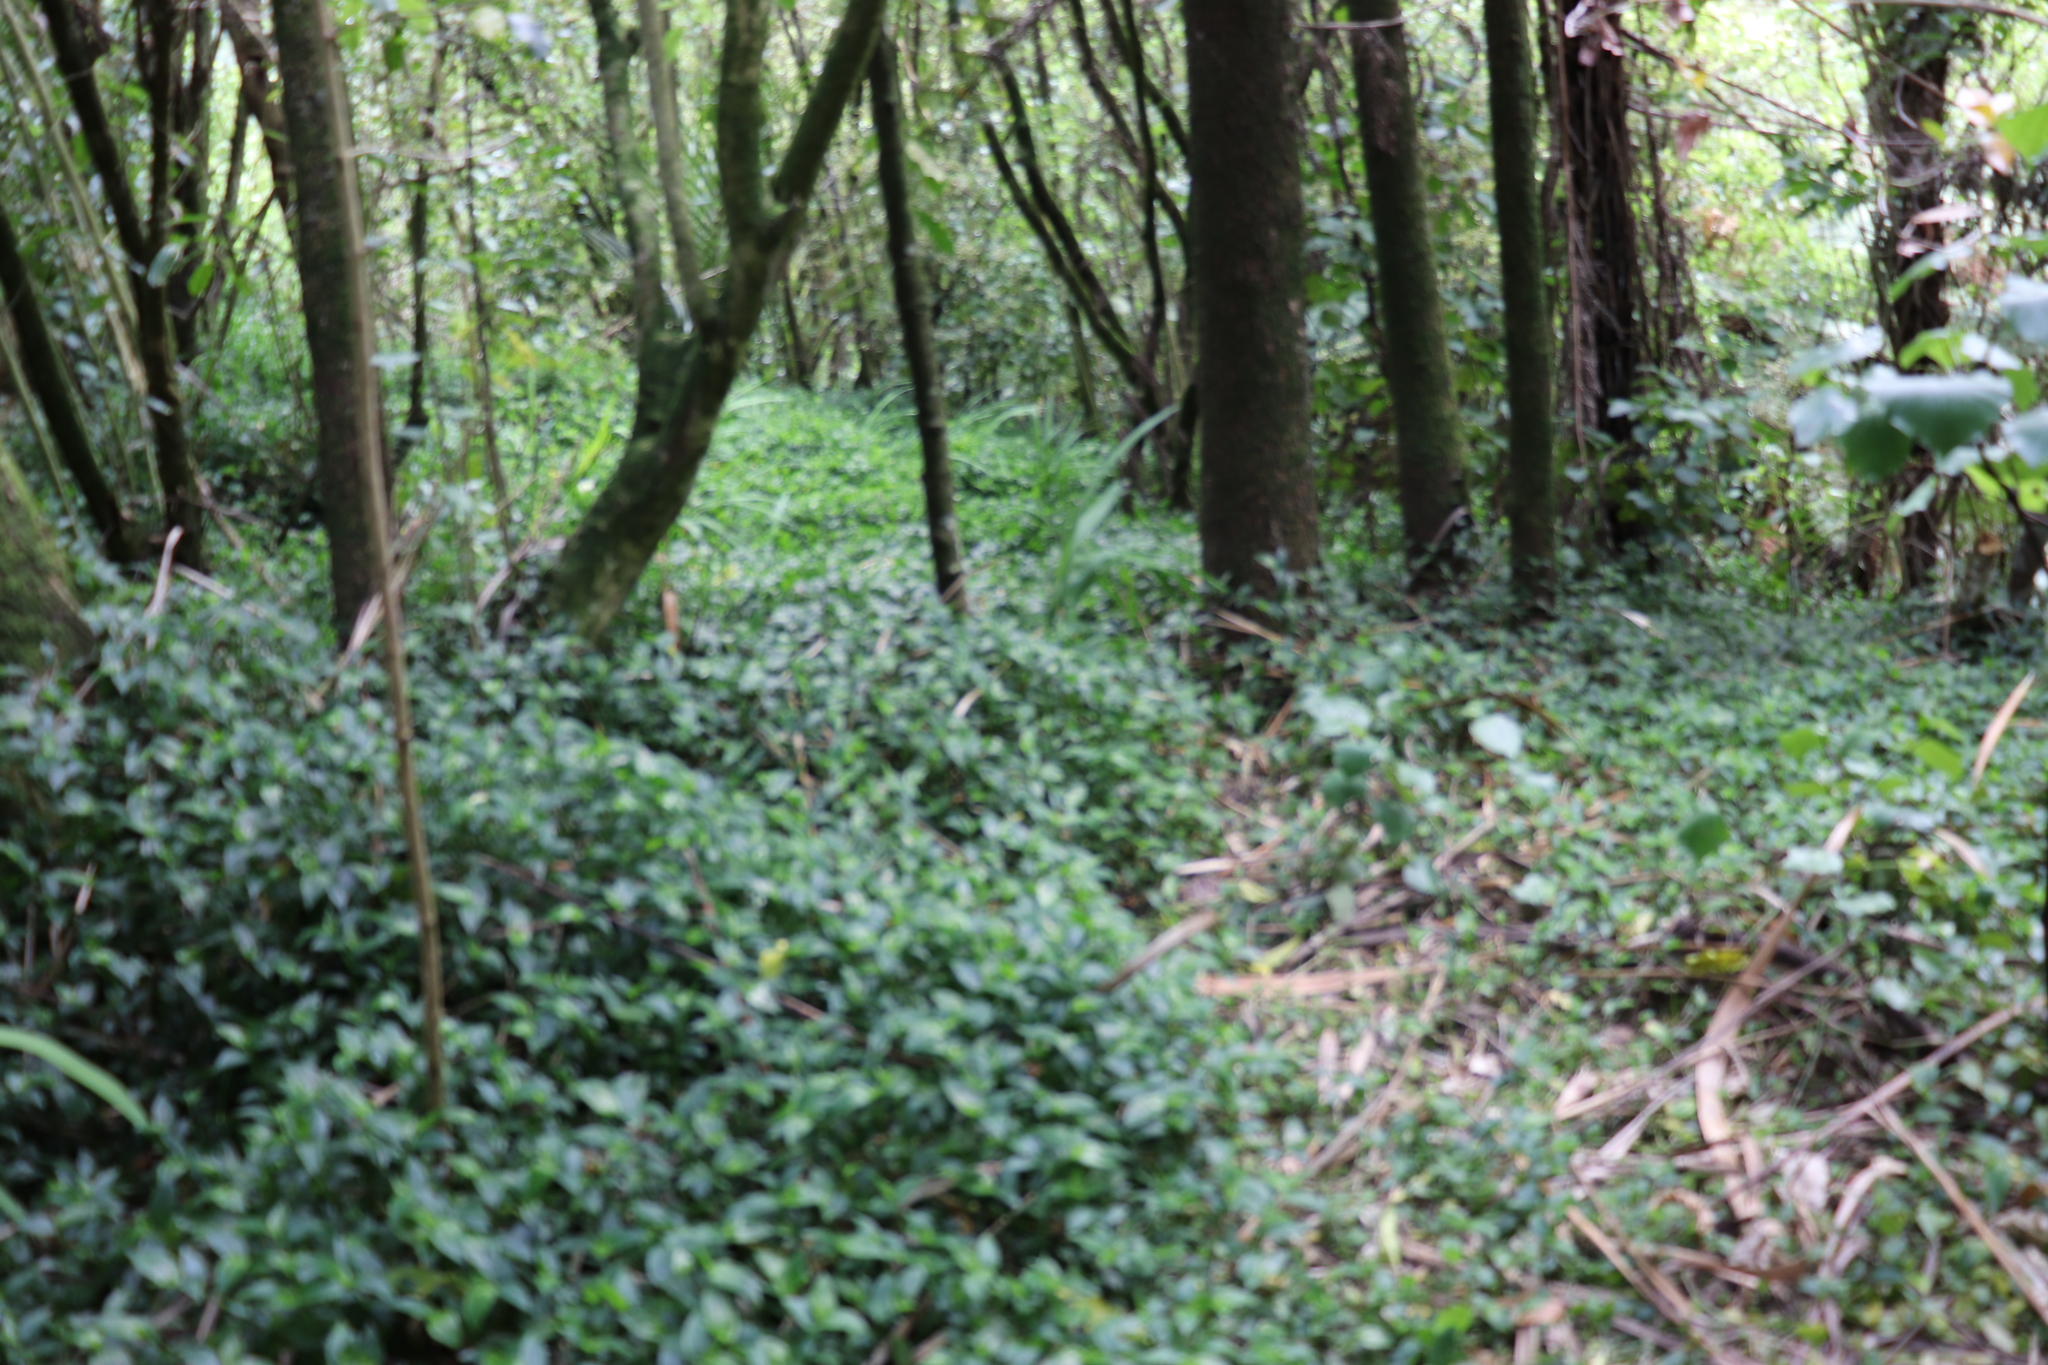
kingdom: Plantae
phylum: Tracheophyta
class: Liliopsida
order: Commelinales
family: Commelinaceae
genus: Tradescantia
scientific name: Tradescantia fluminensis
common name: Wandering-jew
